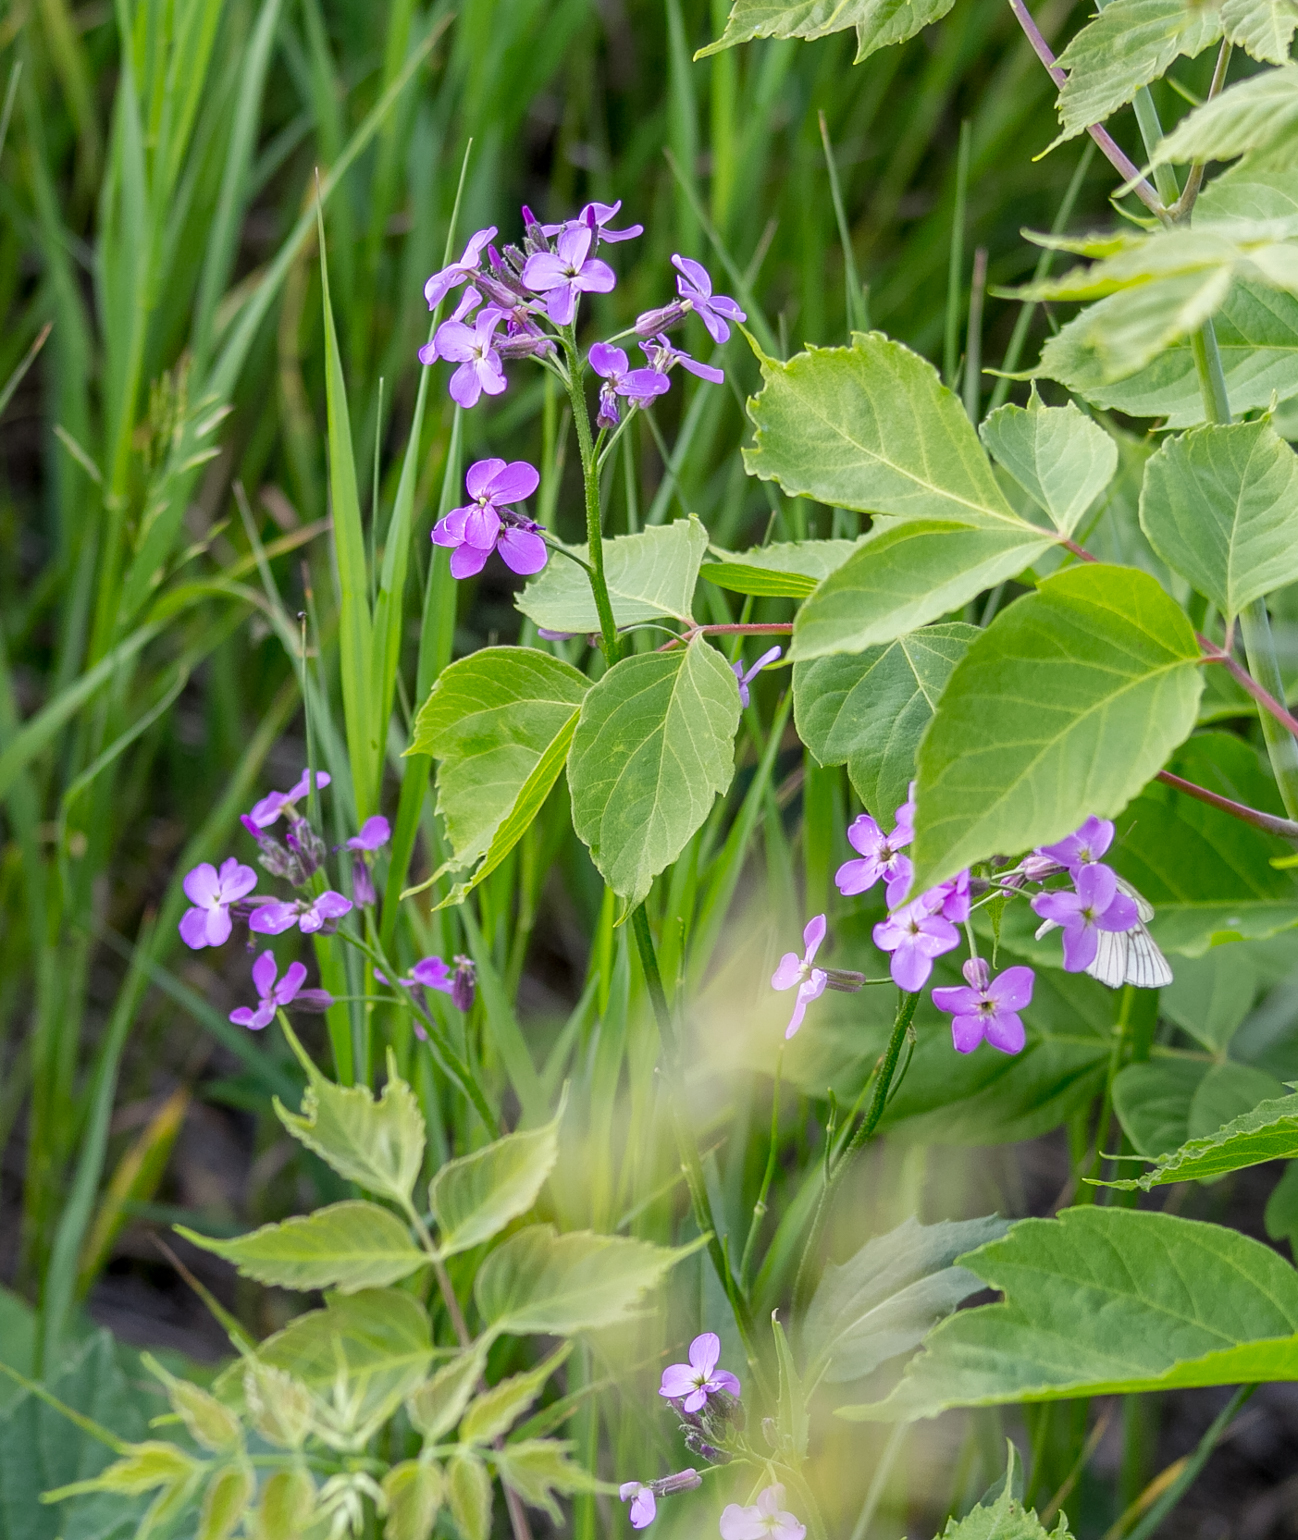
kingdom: Plantae
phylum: Tracheophyta
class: Magnoliopsida
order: Brassicales
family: Brassicaceae
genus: Hesperis
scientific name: Hesperis matronalis
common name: Dame's-violet
